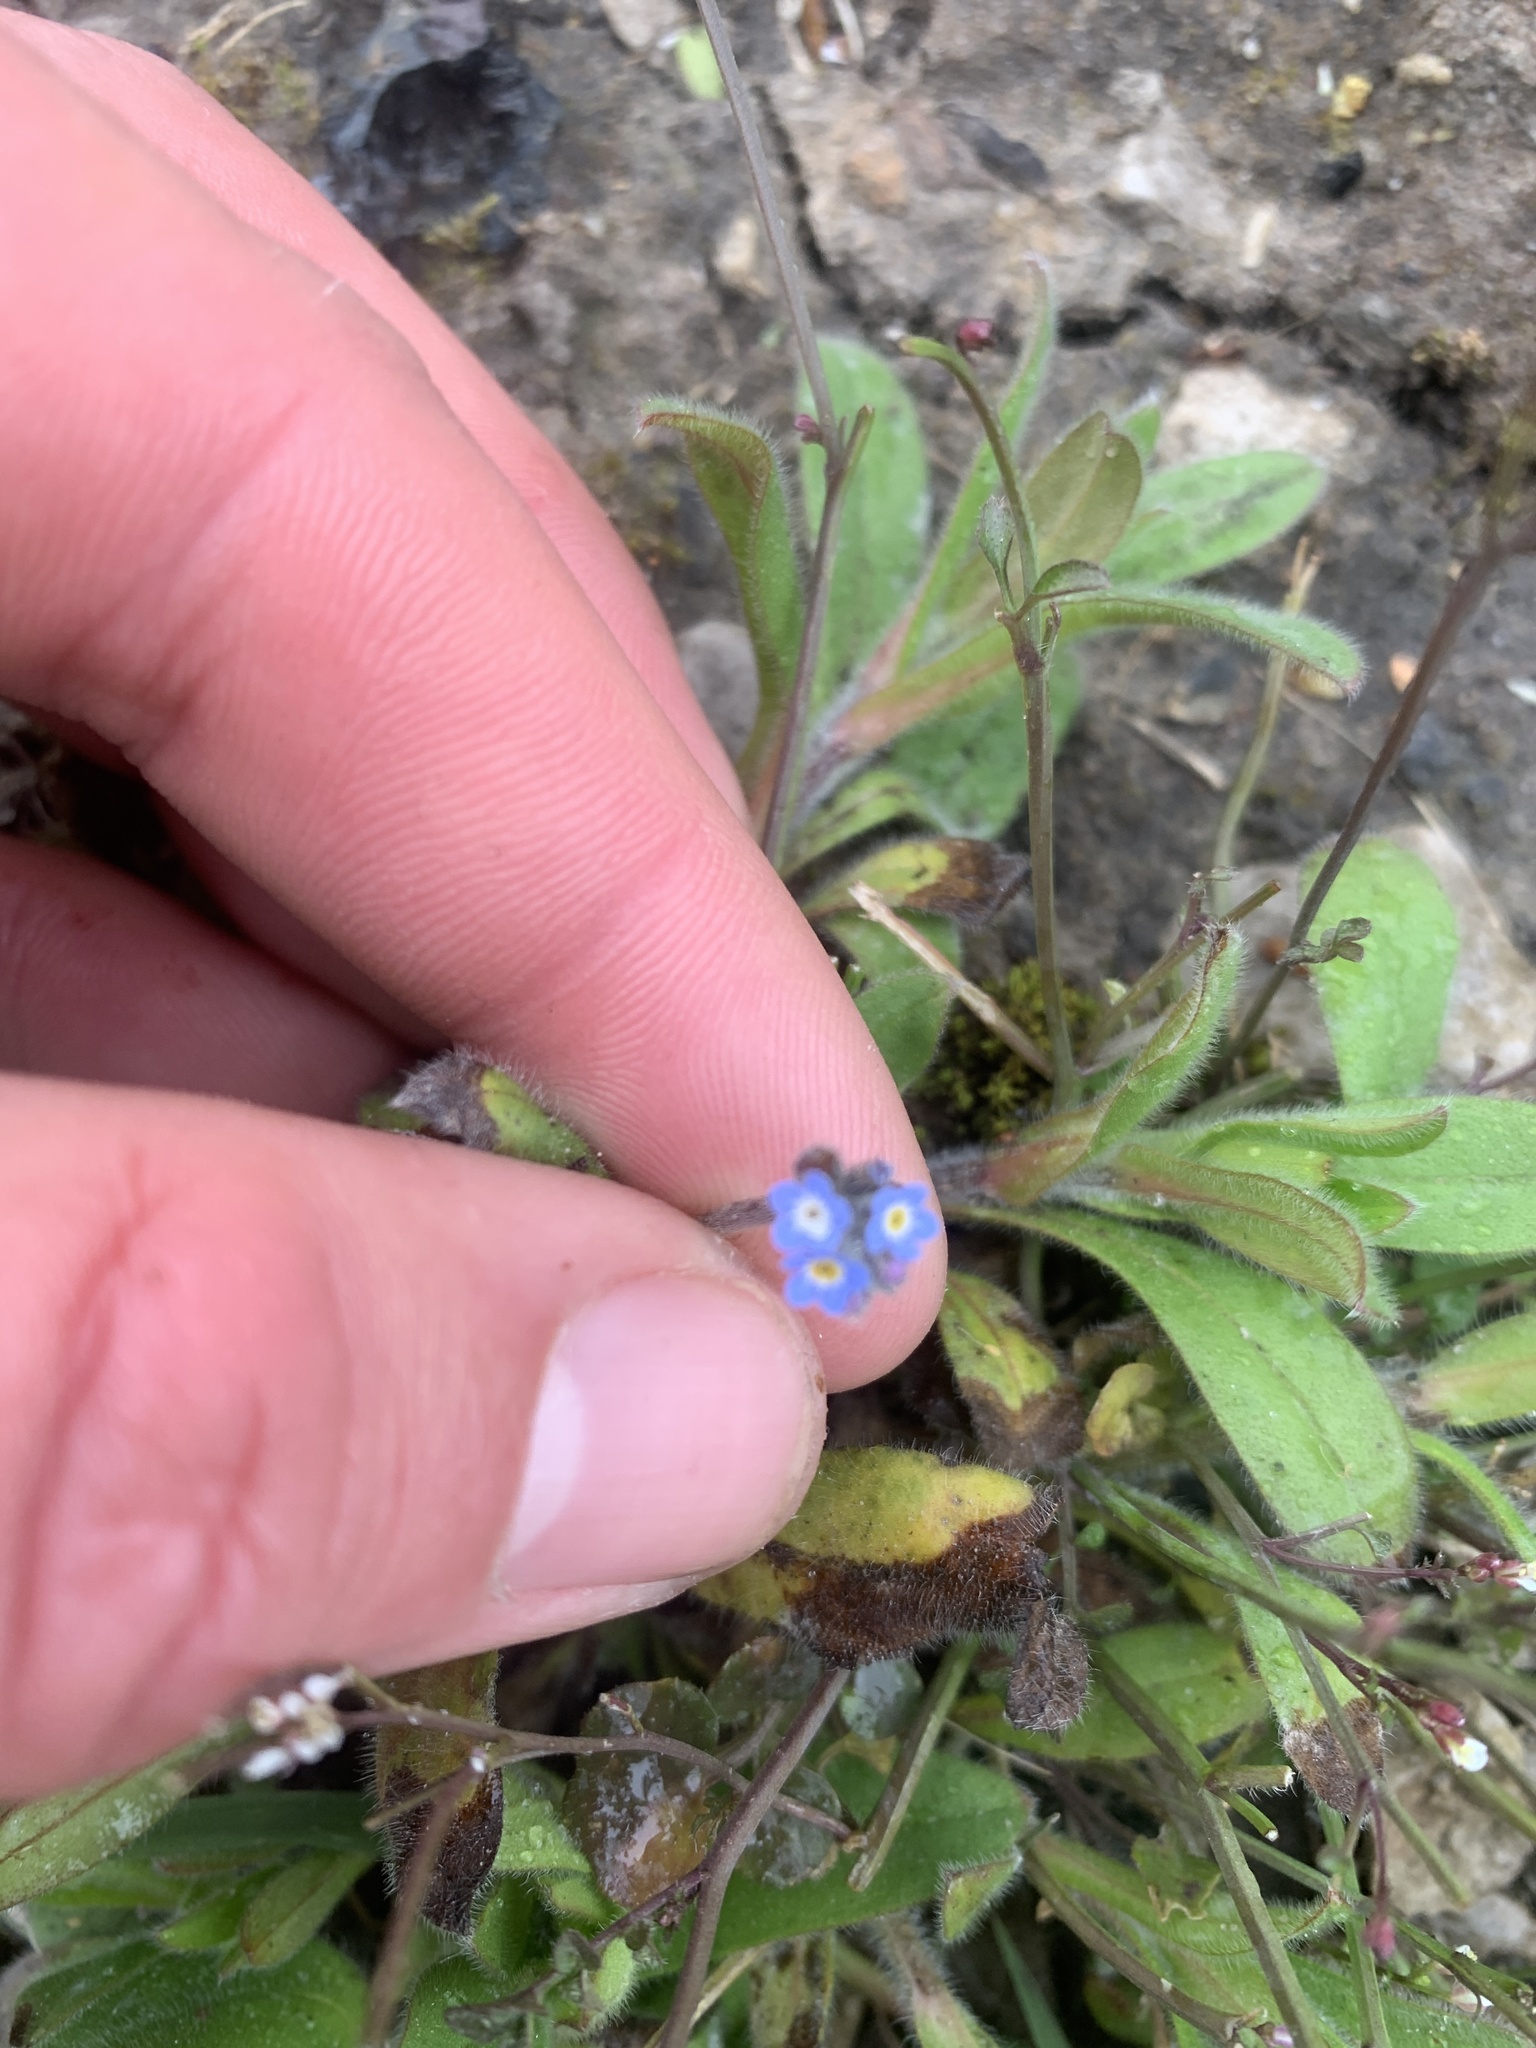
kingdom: Plantae
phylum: Tracheophyta
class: Magnoliopsida
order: Boraginales
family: Boraginaceae
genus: Myosotis
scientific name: Myosotis sylvatica
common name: Wood forget-me-not
